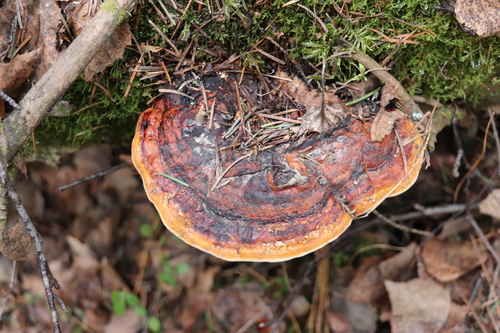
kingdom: Fungi
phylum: Basidiomycota
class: Agaricomycetes
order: Polyporales
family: Fomitopsidaceae
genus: Fomitopsis
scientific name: Fomitopsis pinicola
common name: Red-belted bracket
